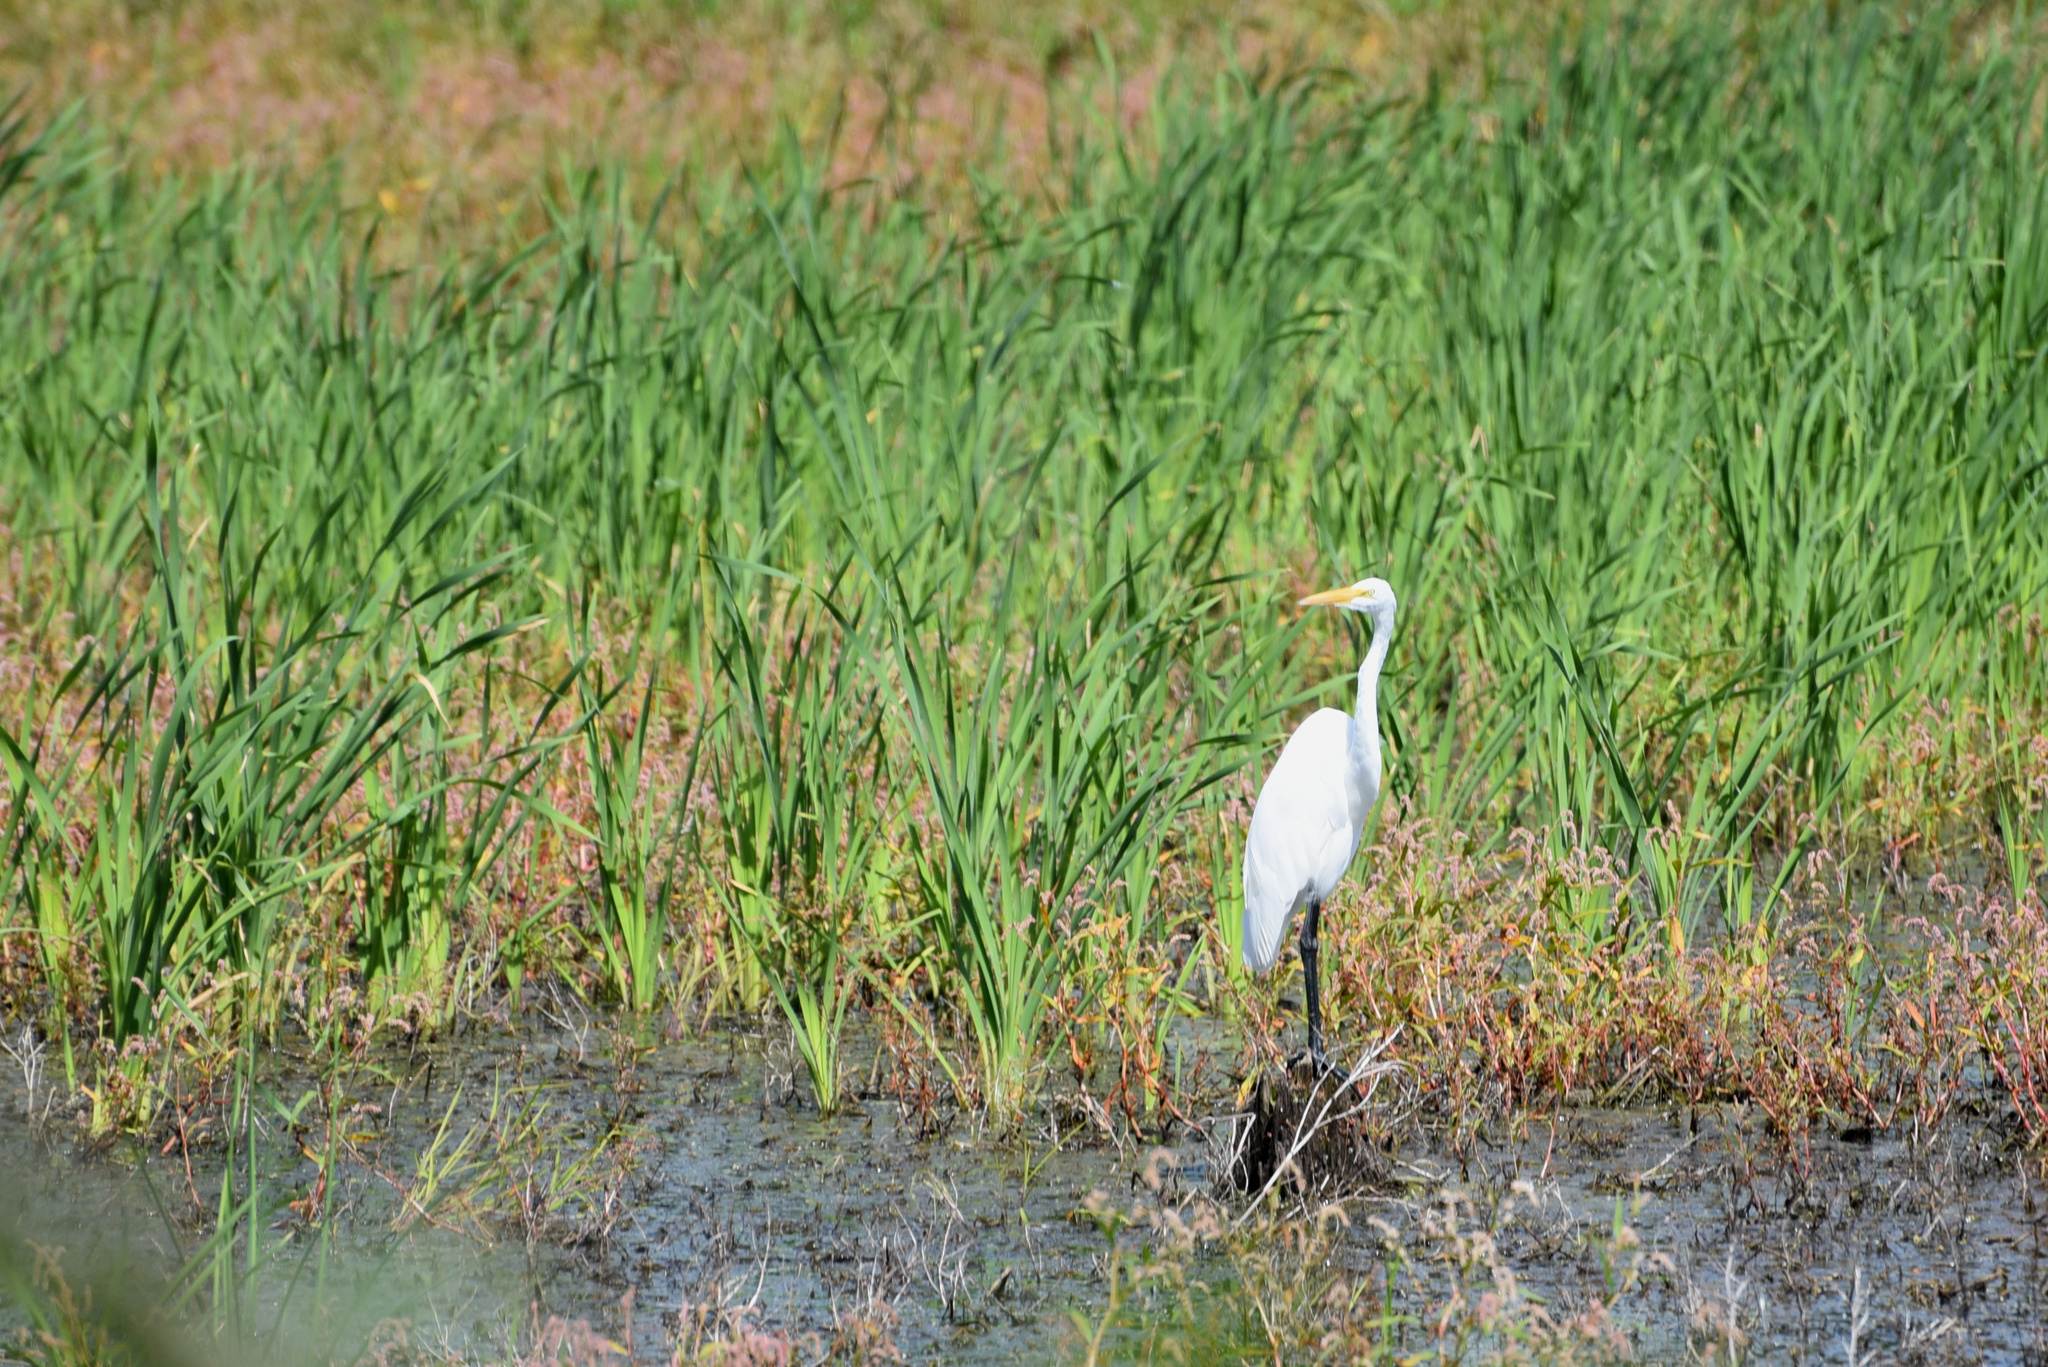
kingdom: Animalia
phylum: Chordata
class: Aves
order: Pelecaniformes
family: Ardeidae
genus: Ardea
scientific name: Ardea alba
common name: Great egret
